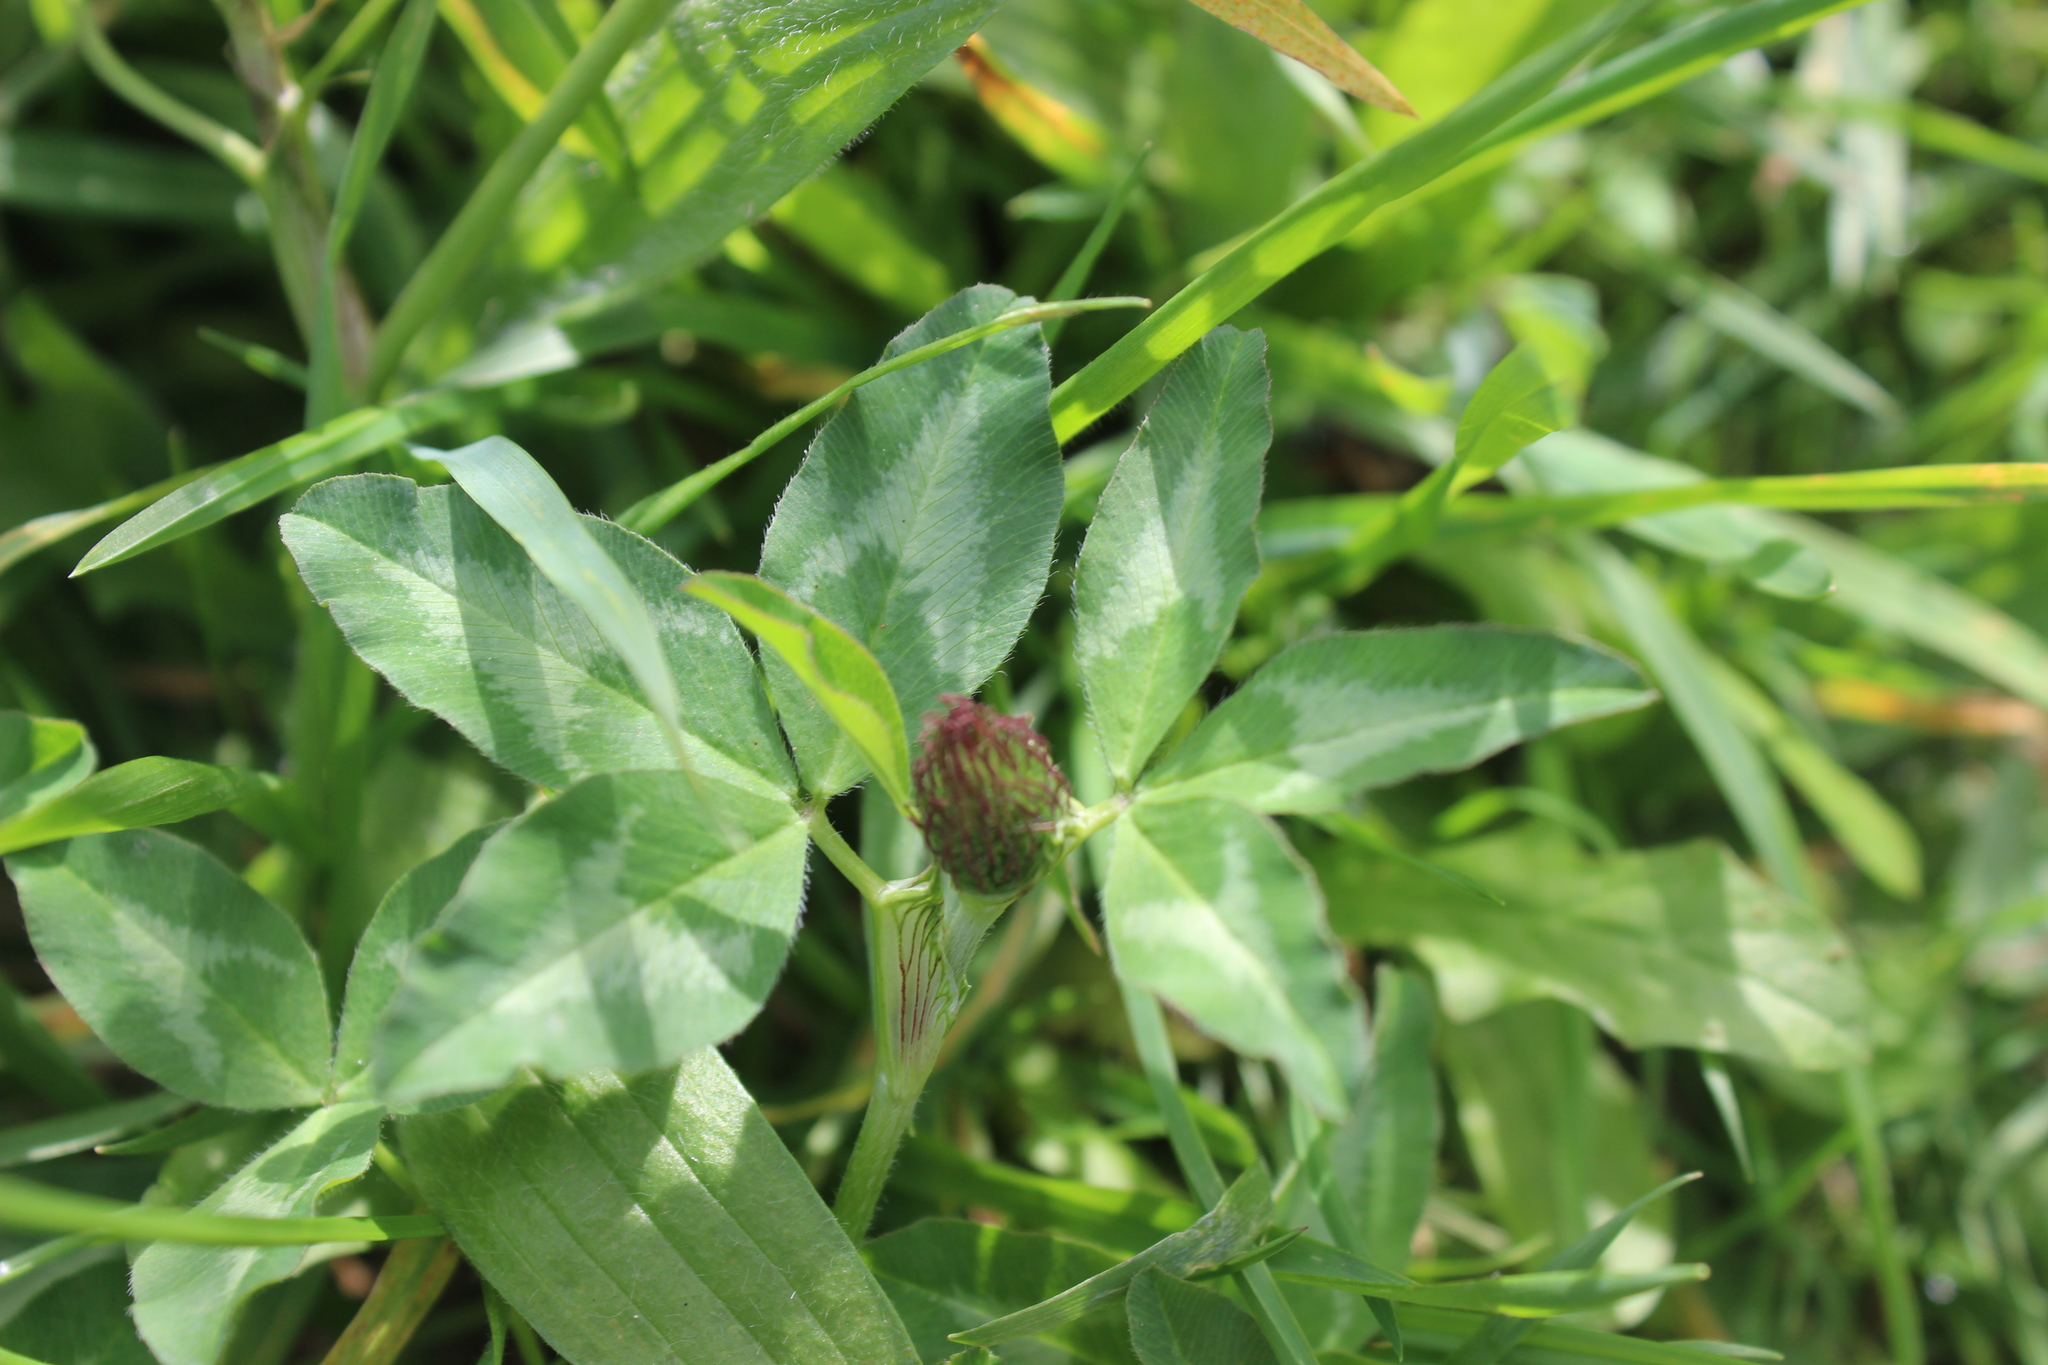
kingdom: Plantae
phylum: Tracheophyta
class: Magnoliopsida
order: Fabales
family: Fabaceae
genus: Trifolium
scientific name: Trifolium pratense
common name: Red clover
